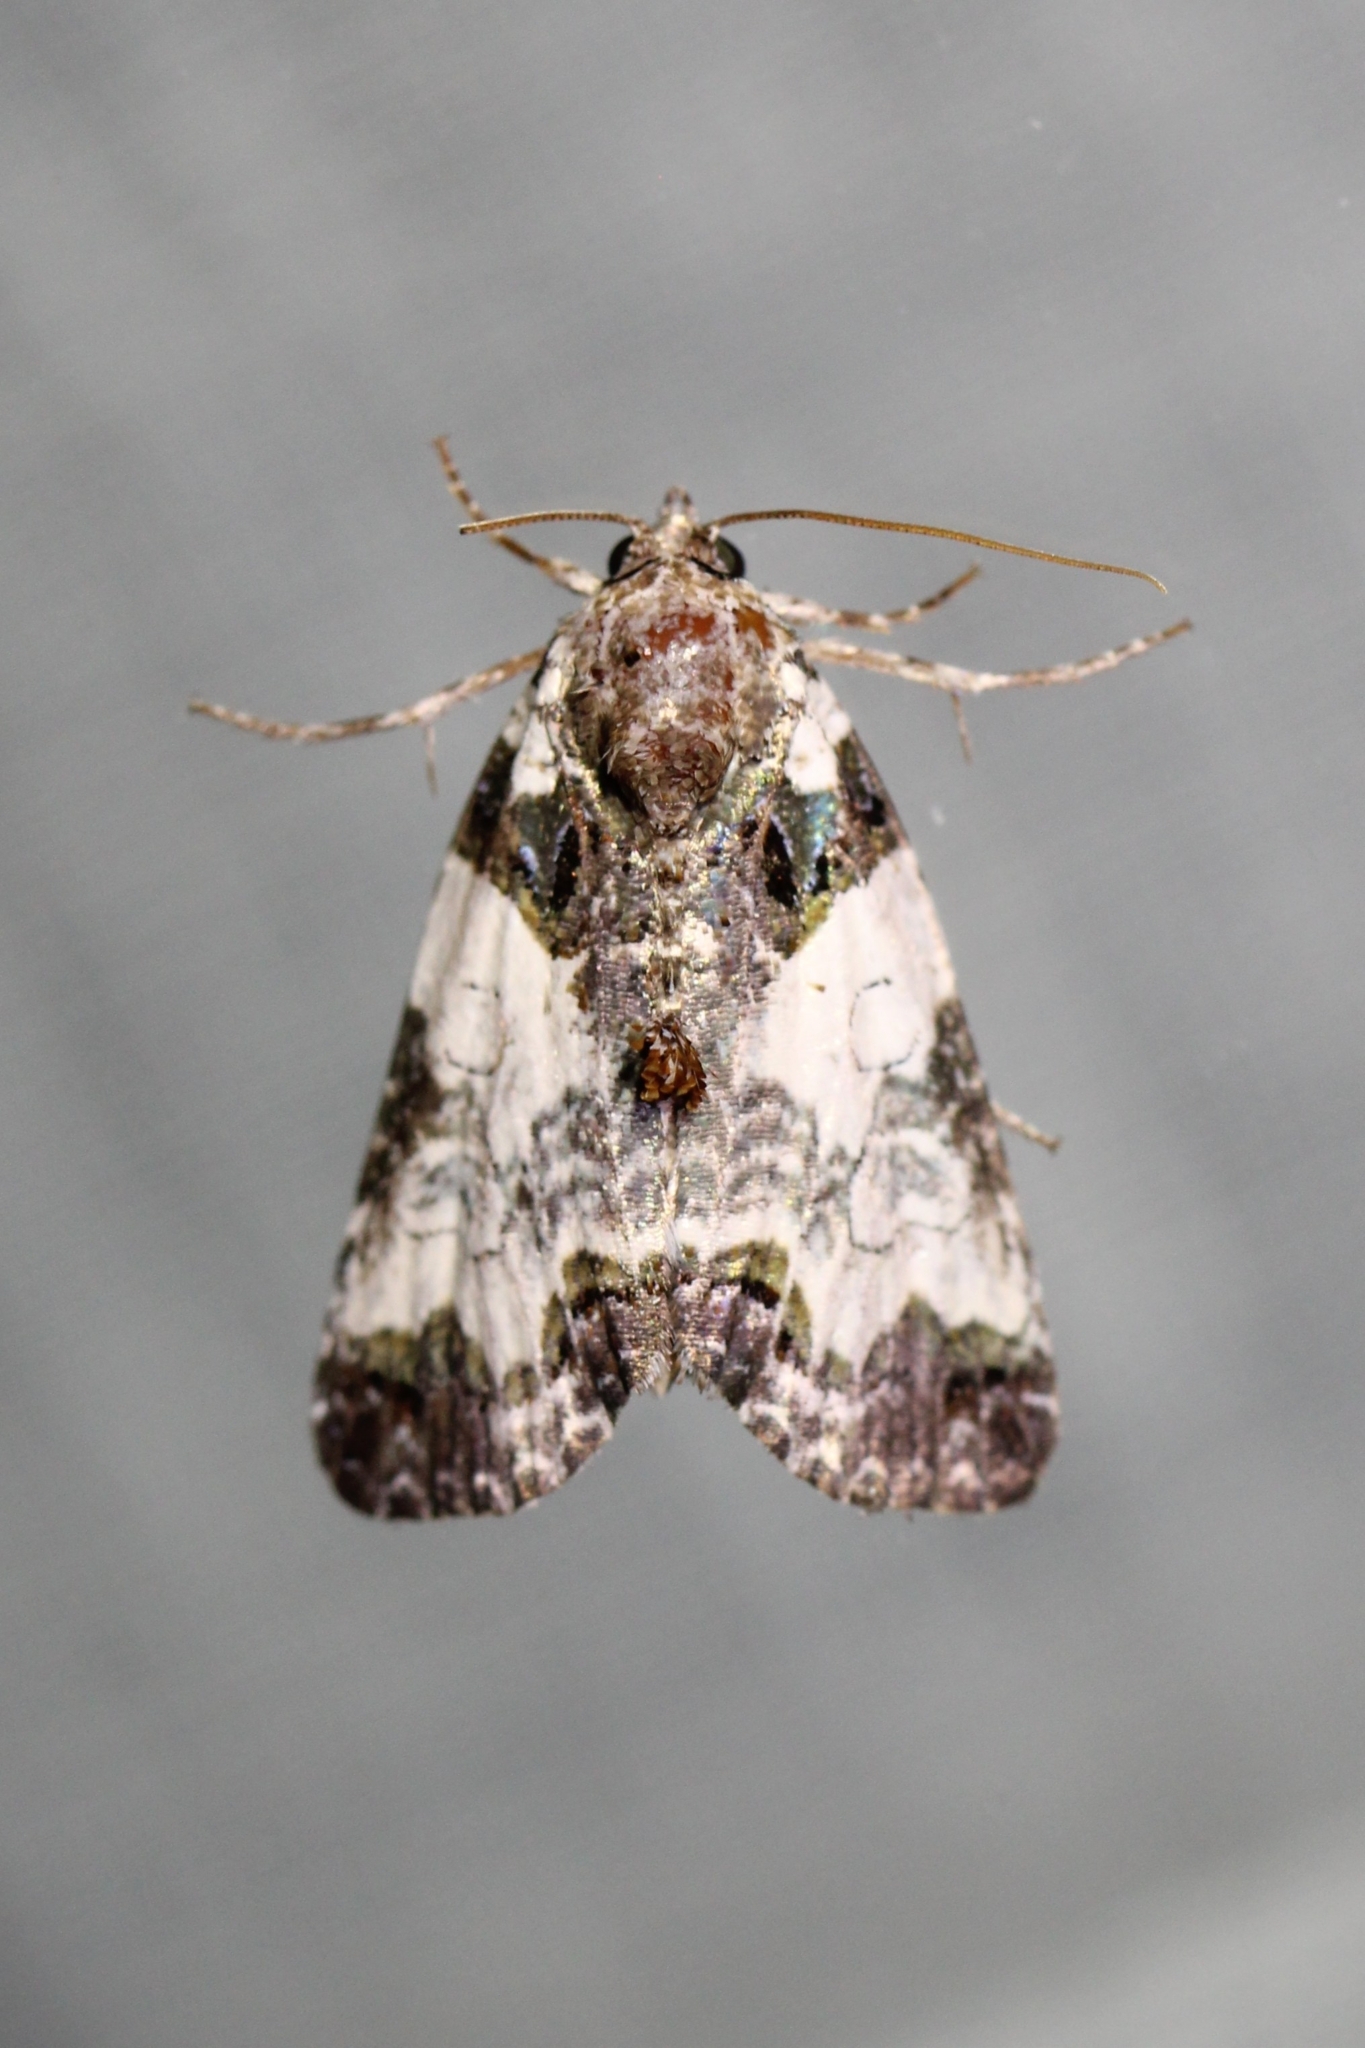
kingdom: Animalia
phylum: Arthropoda
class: Insecta
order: Lepidoptera
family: Noctuidae
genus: Cerma
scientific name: Cerma cerintha
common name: Tufted bird-dropping moth
